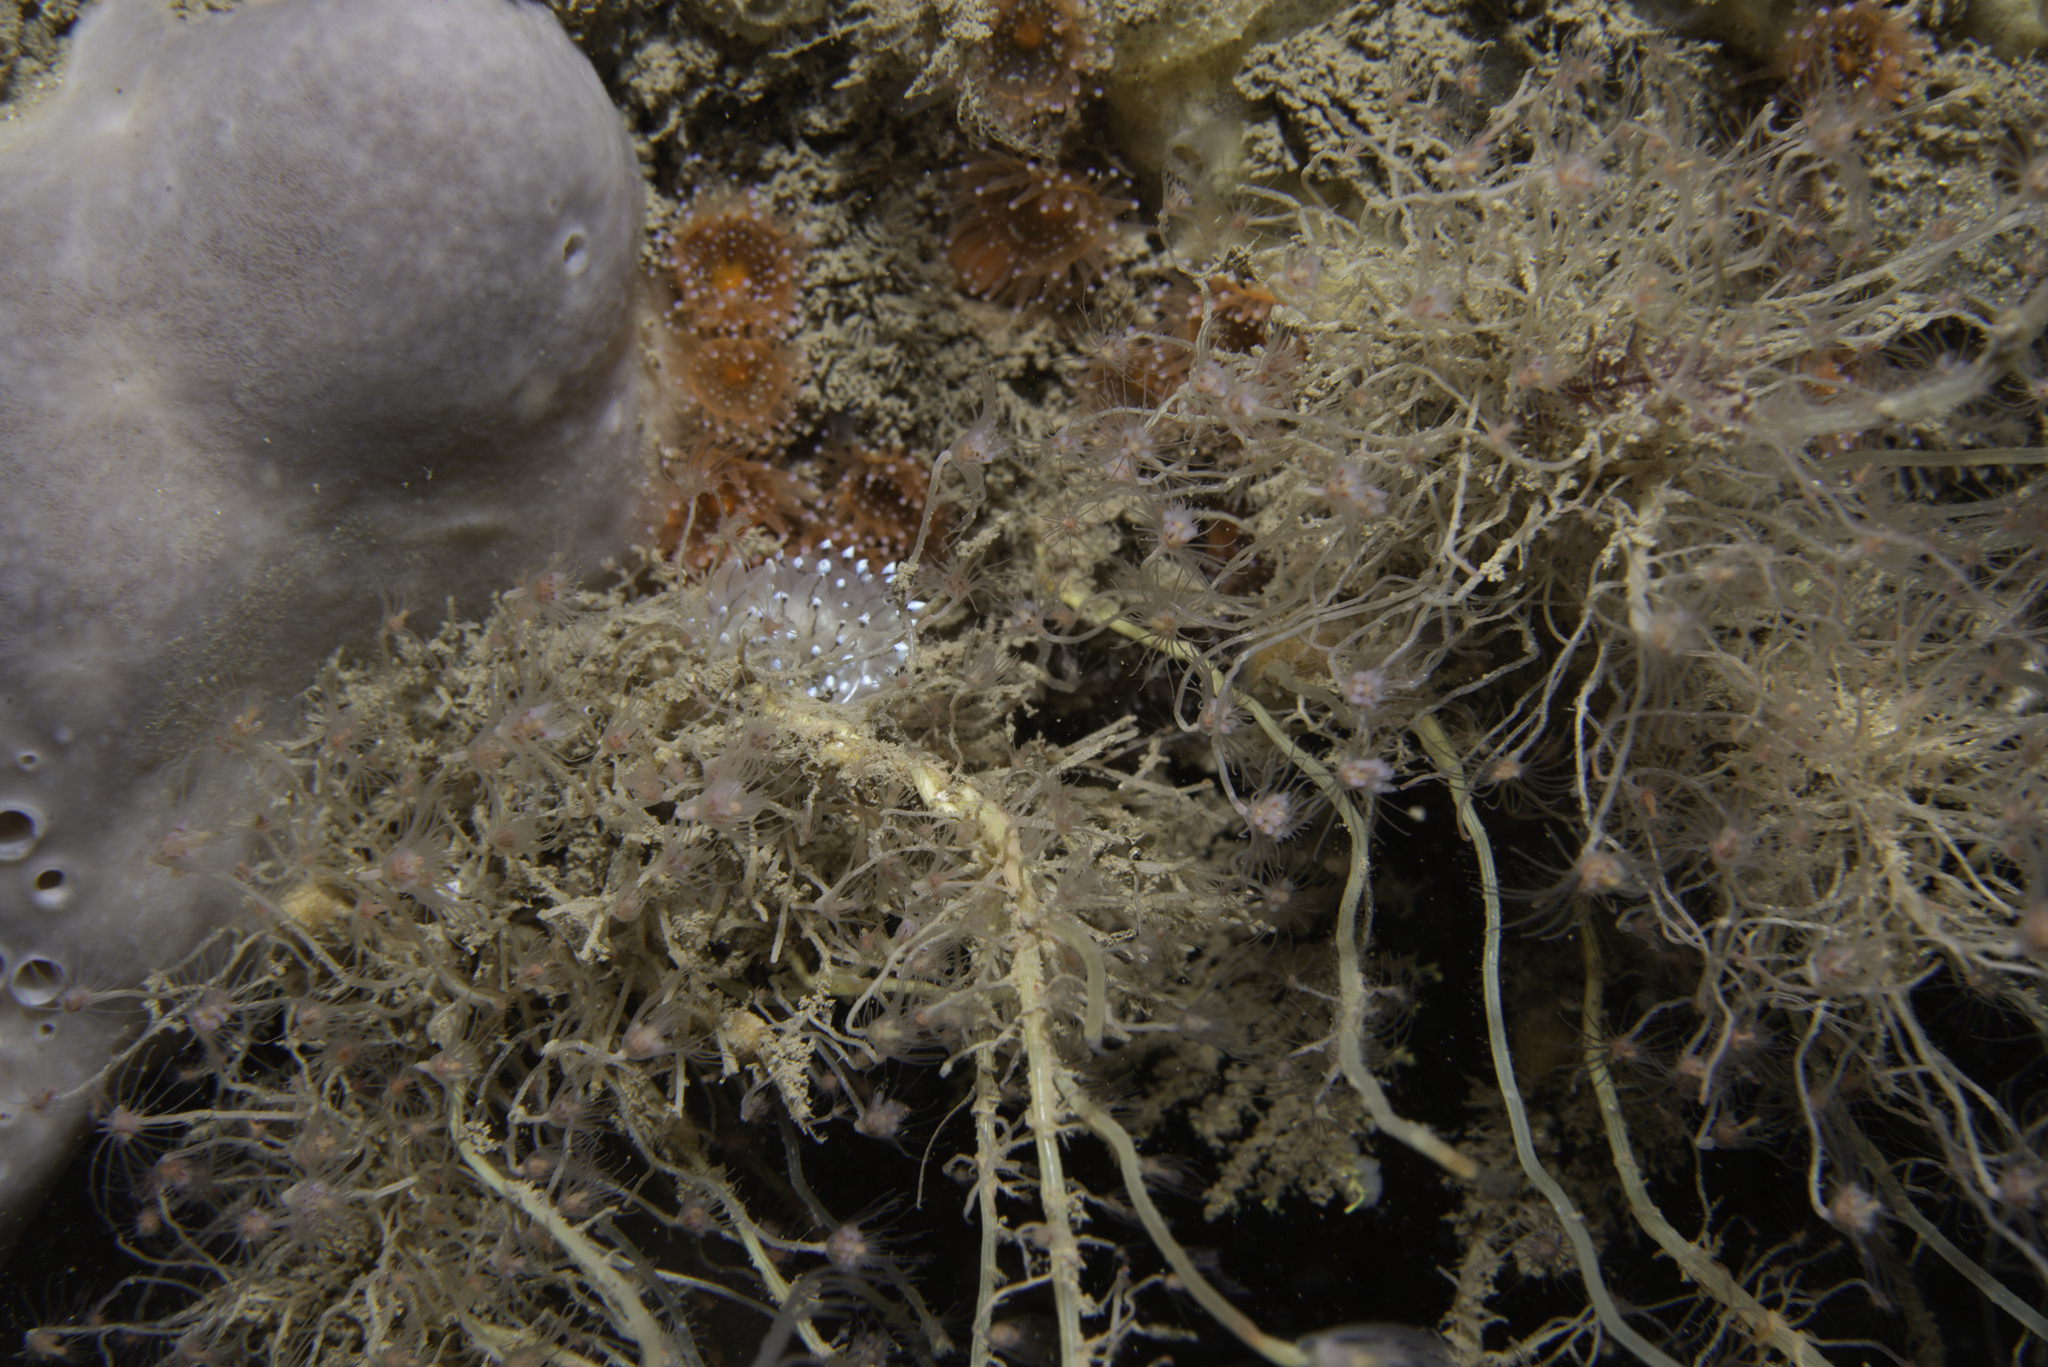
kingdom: Animalia
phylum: Mollusca
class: Gastropoda
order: Nudibranchia
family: Janolidae
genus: Antiopella
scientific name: Antiopella cristata
